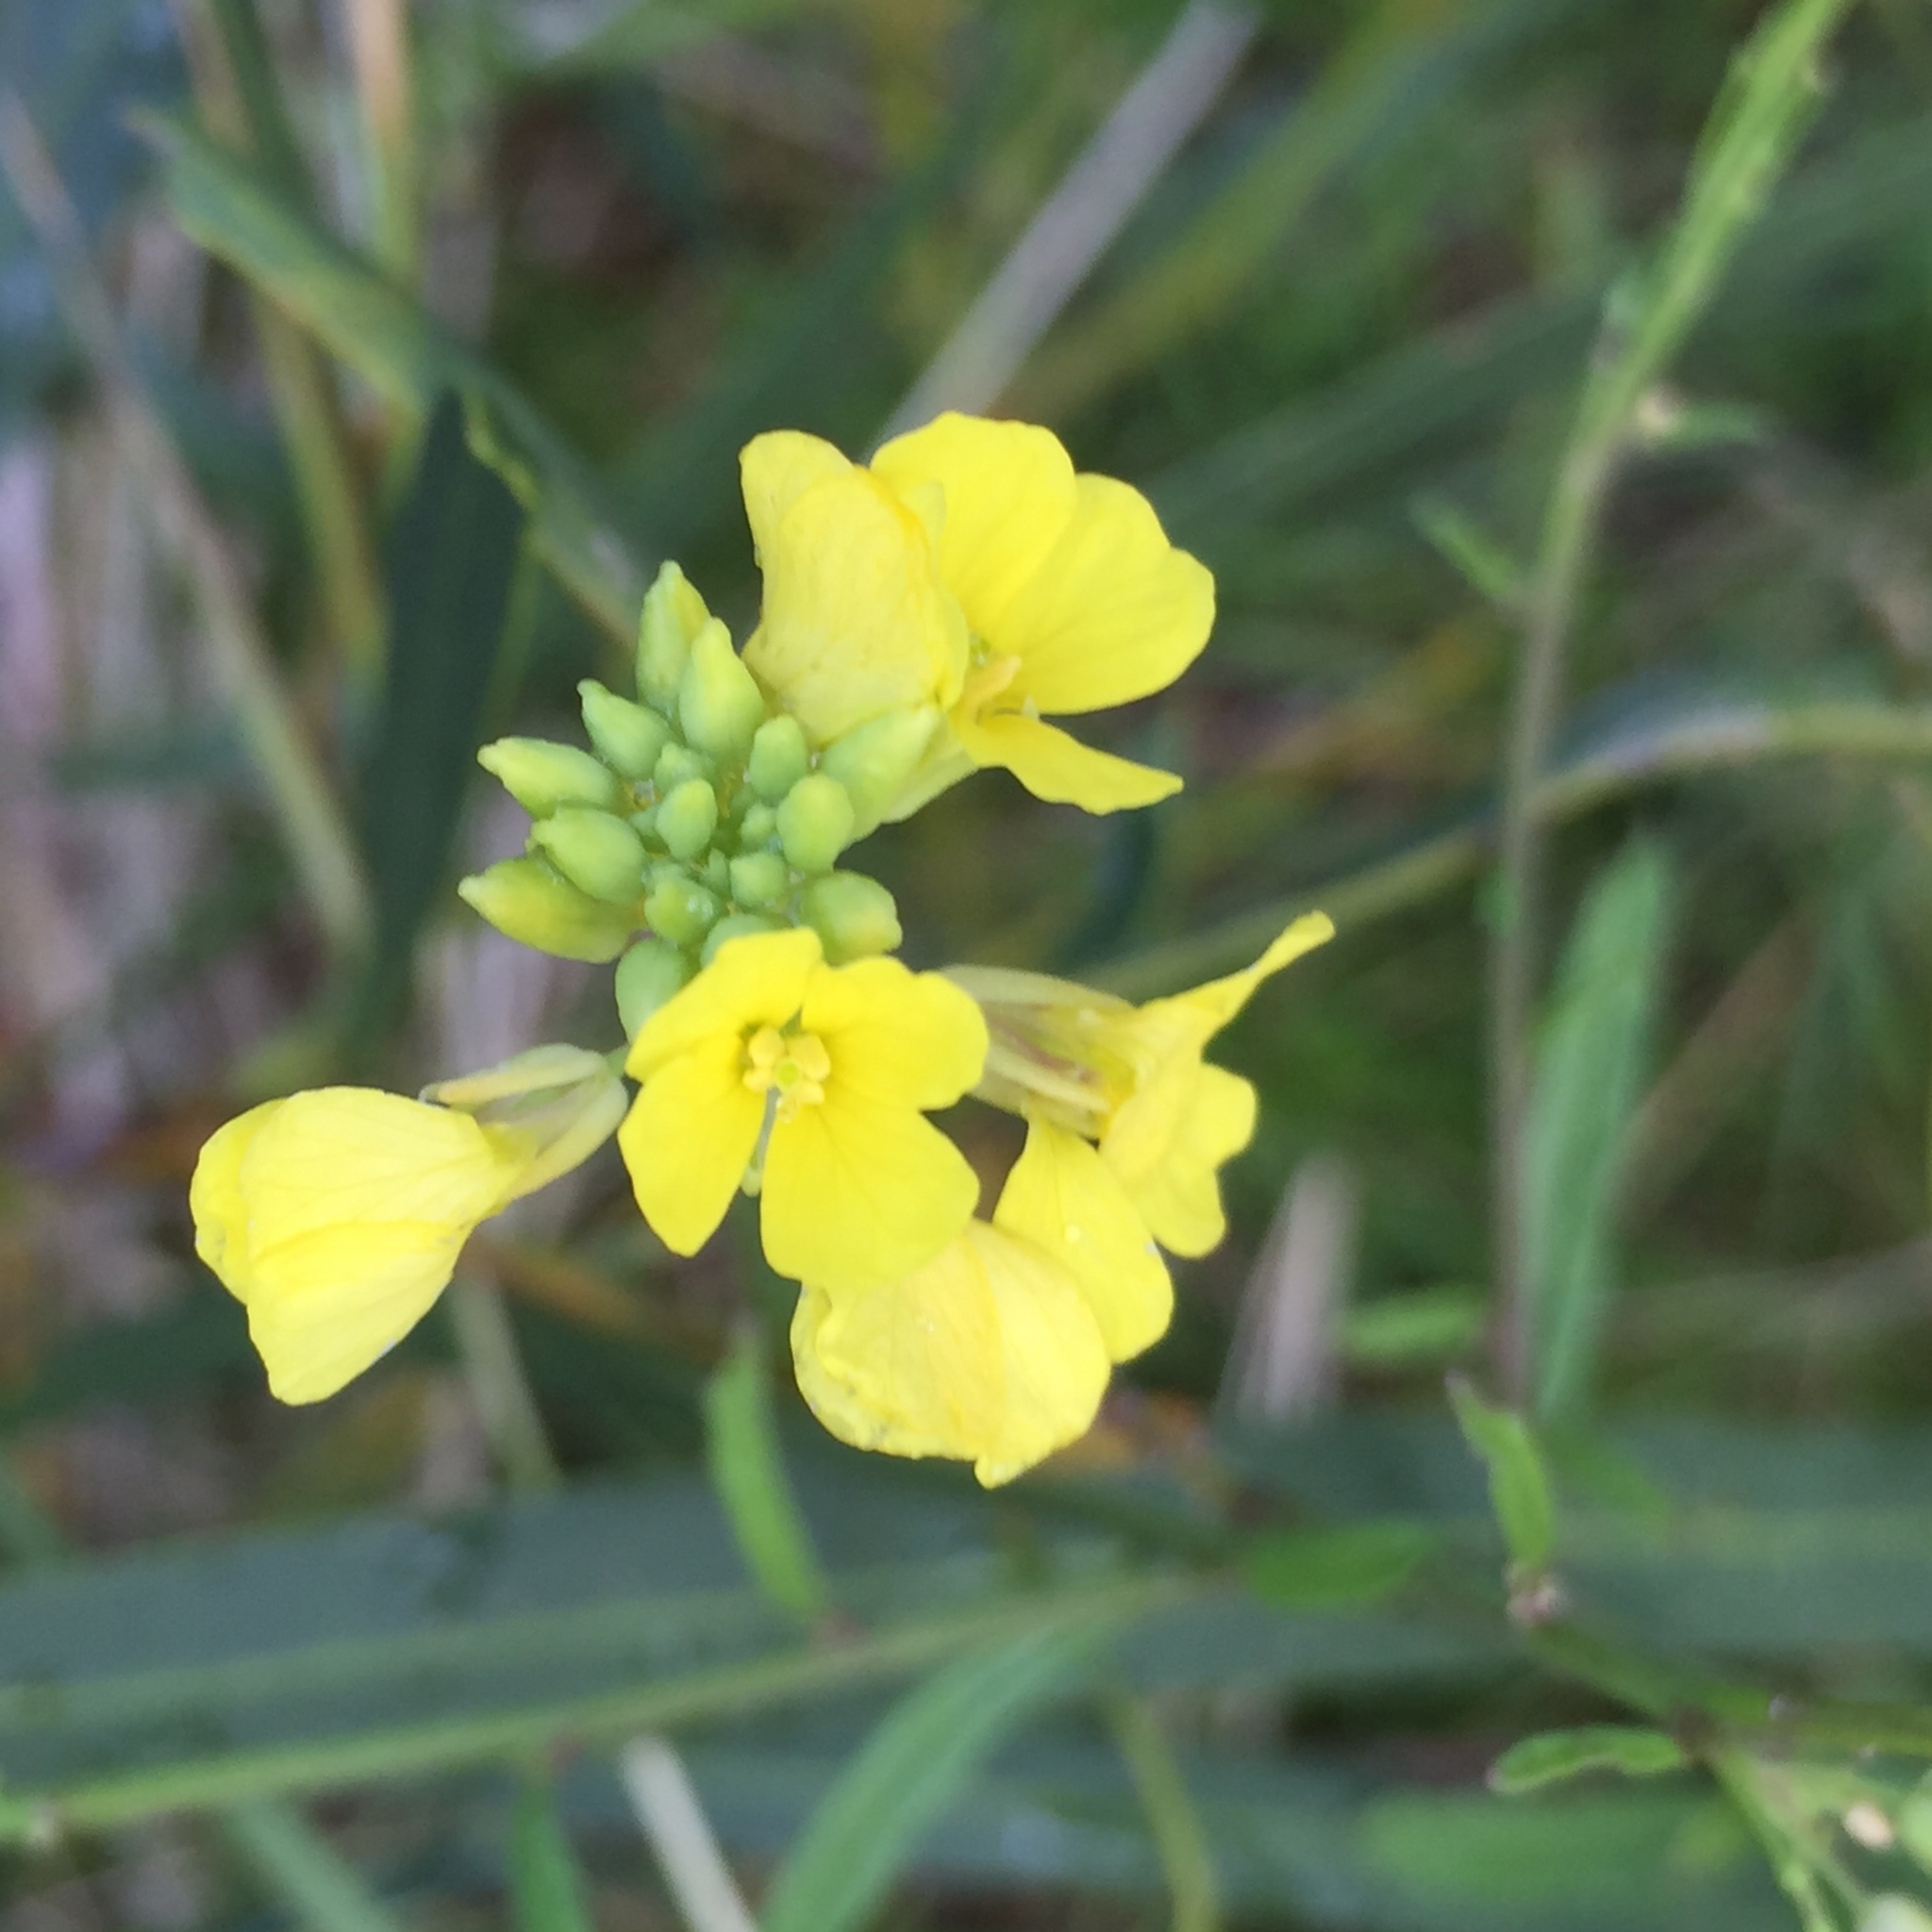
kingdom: Plantae
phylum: Tracheophyta
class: Magnoliopsida
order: Brassicales
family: Brassicaceae
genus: Rapistrum
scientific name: Rapistrum rugosum
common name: Annual bastardcabbage
